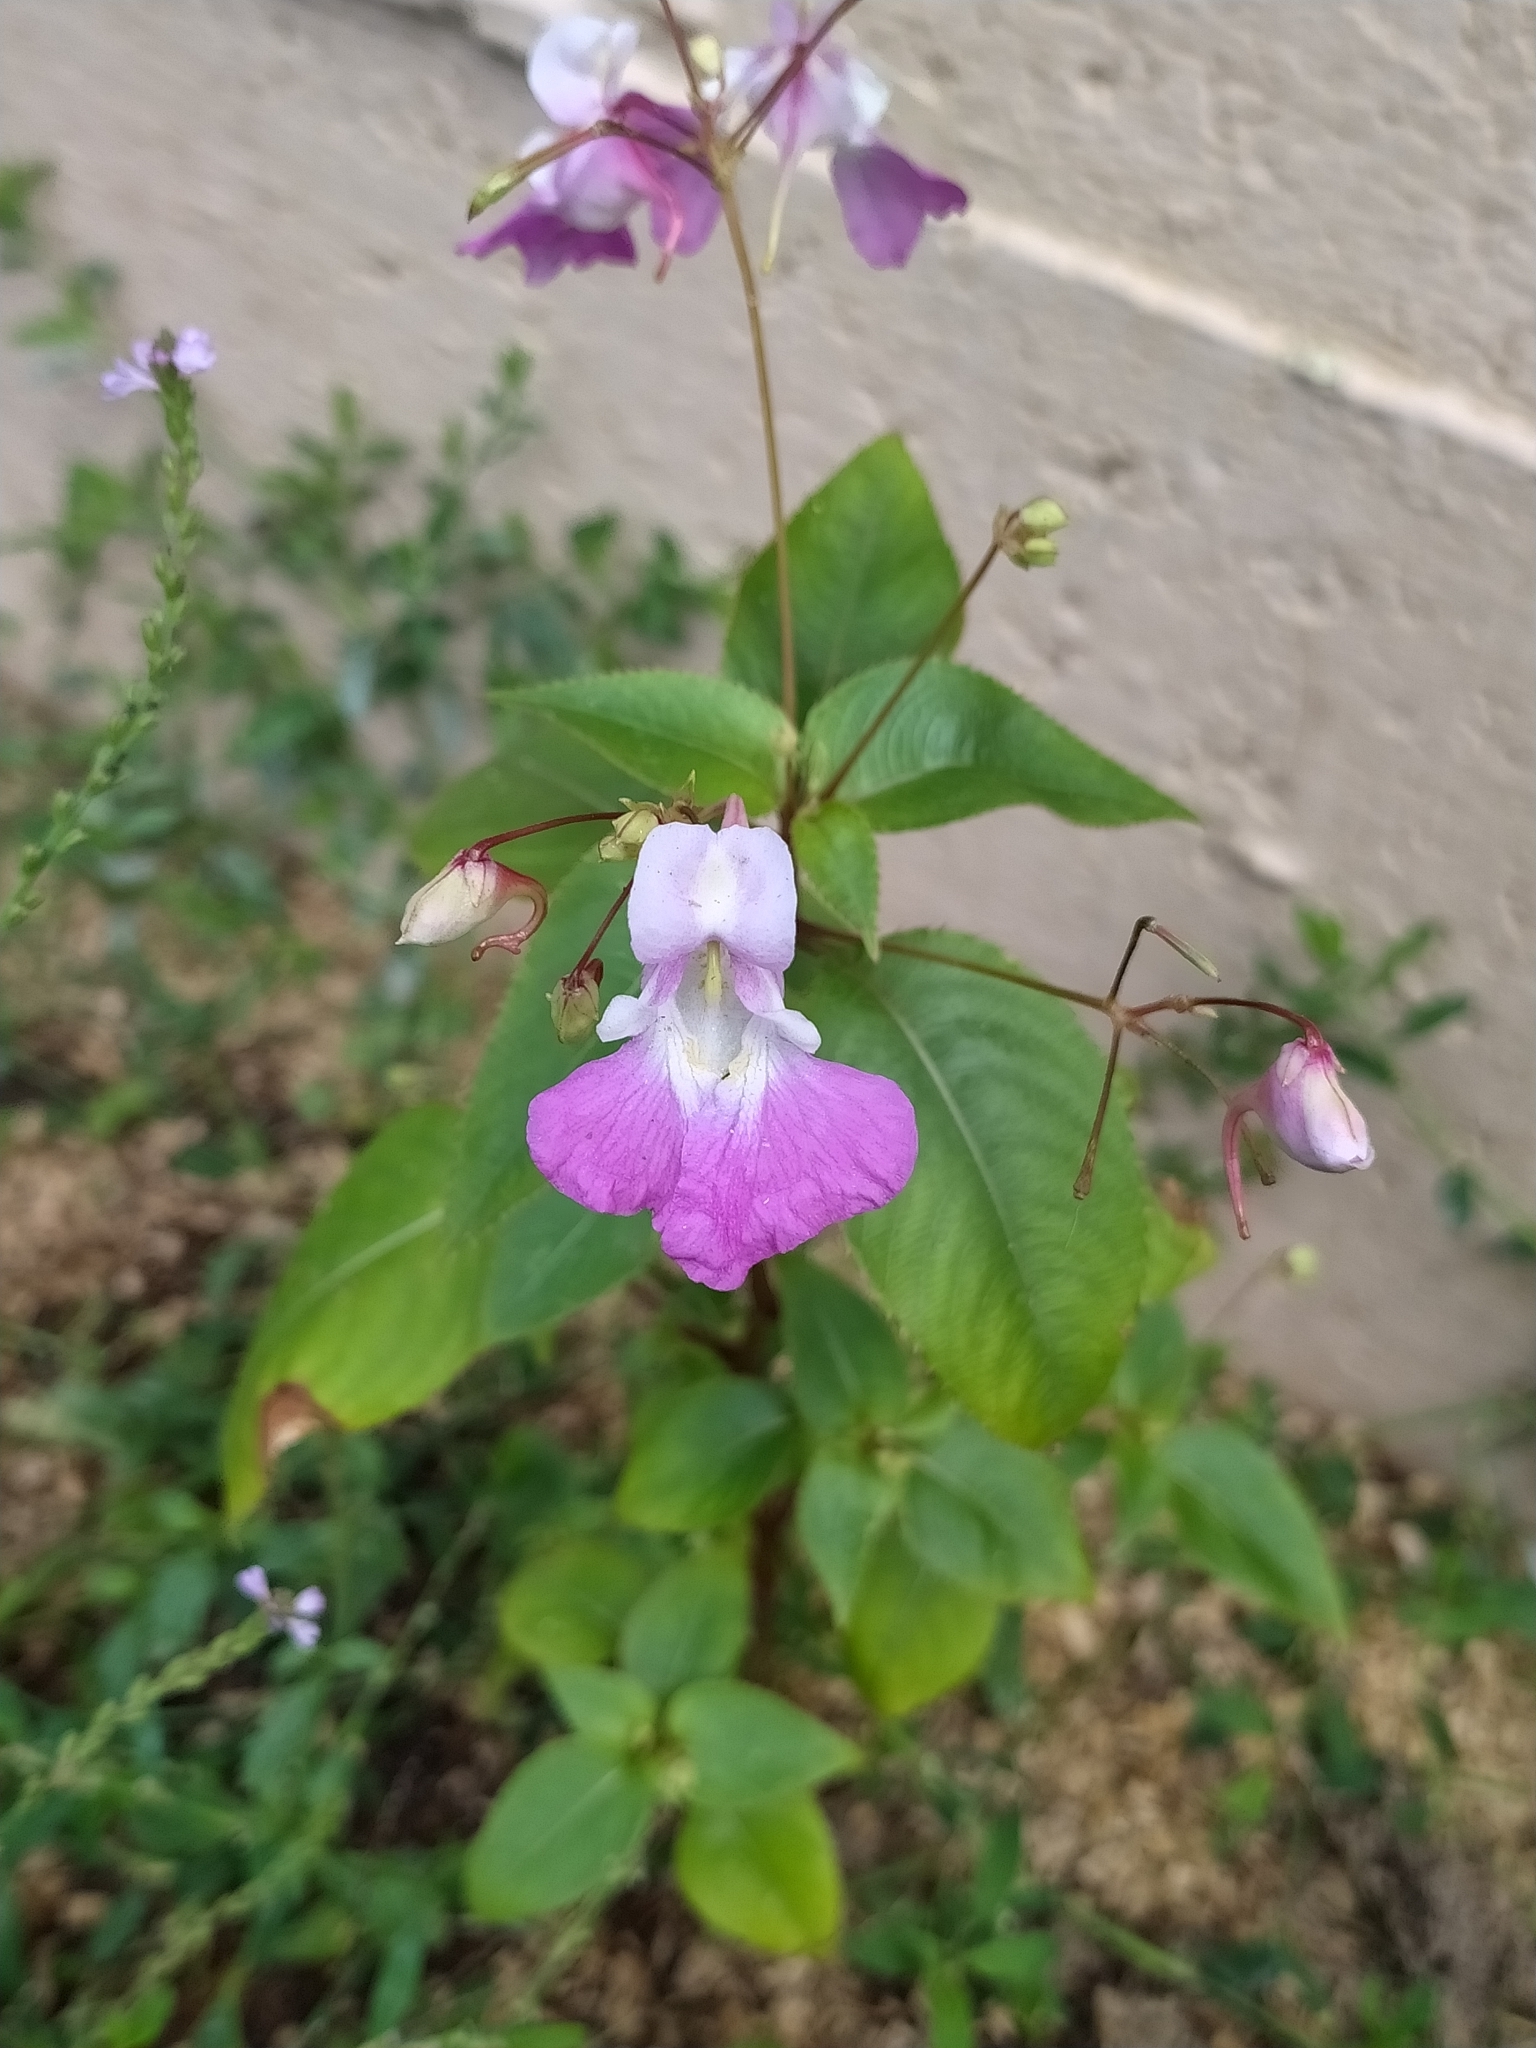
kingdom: Plantae
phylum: Tracheophyta
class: Magnoliopsida
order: Ericales
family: Balsaminaceae
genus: Impatiens
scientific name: Impatiens balfourii
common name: Balfour's touch-me-not
